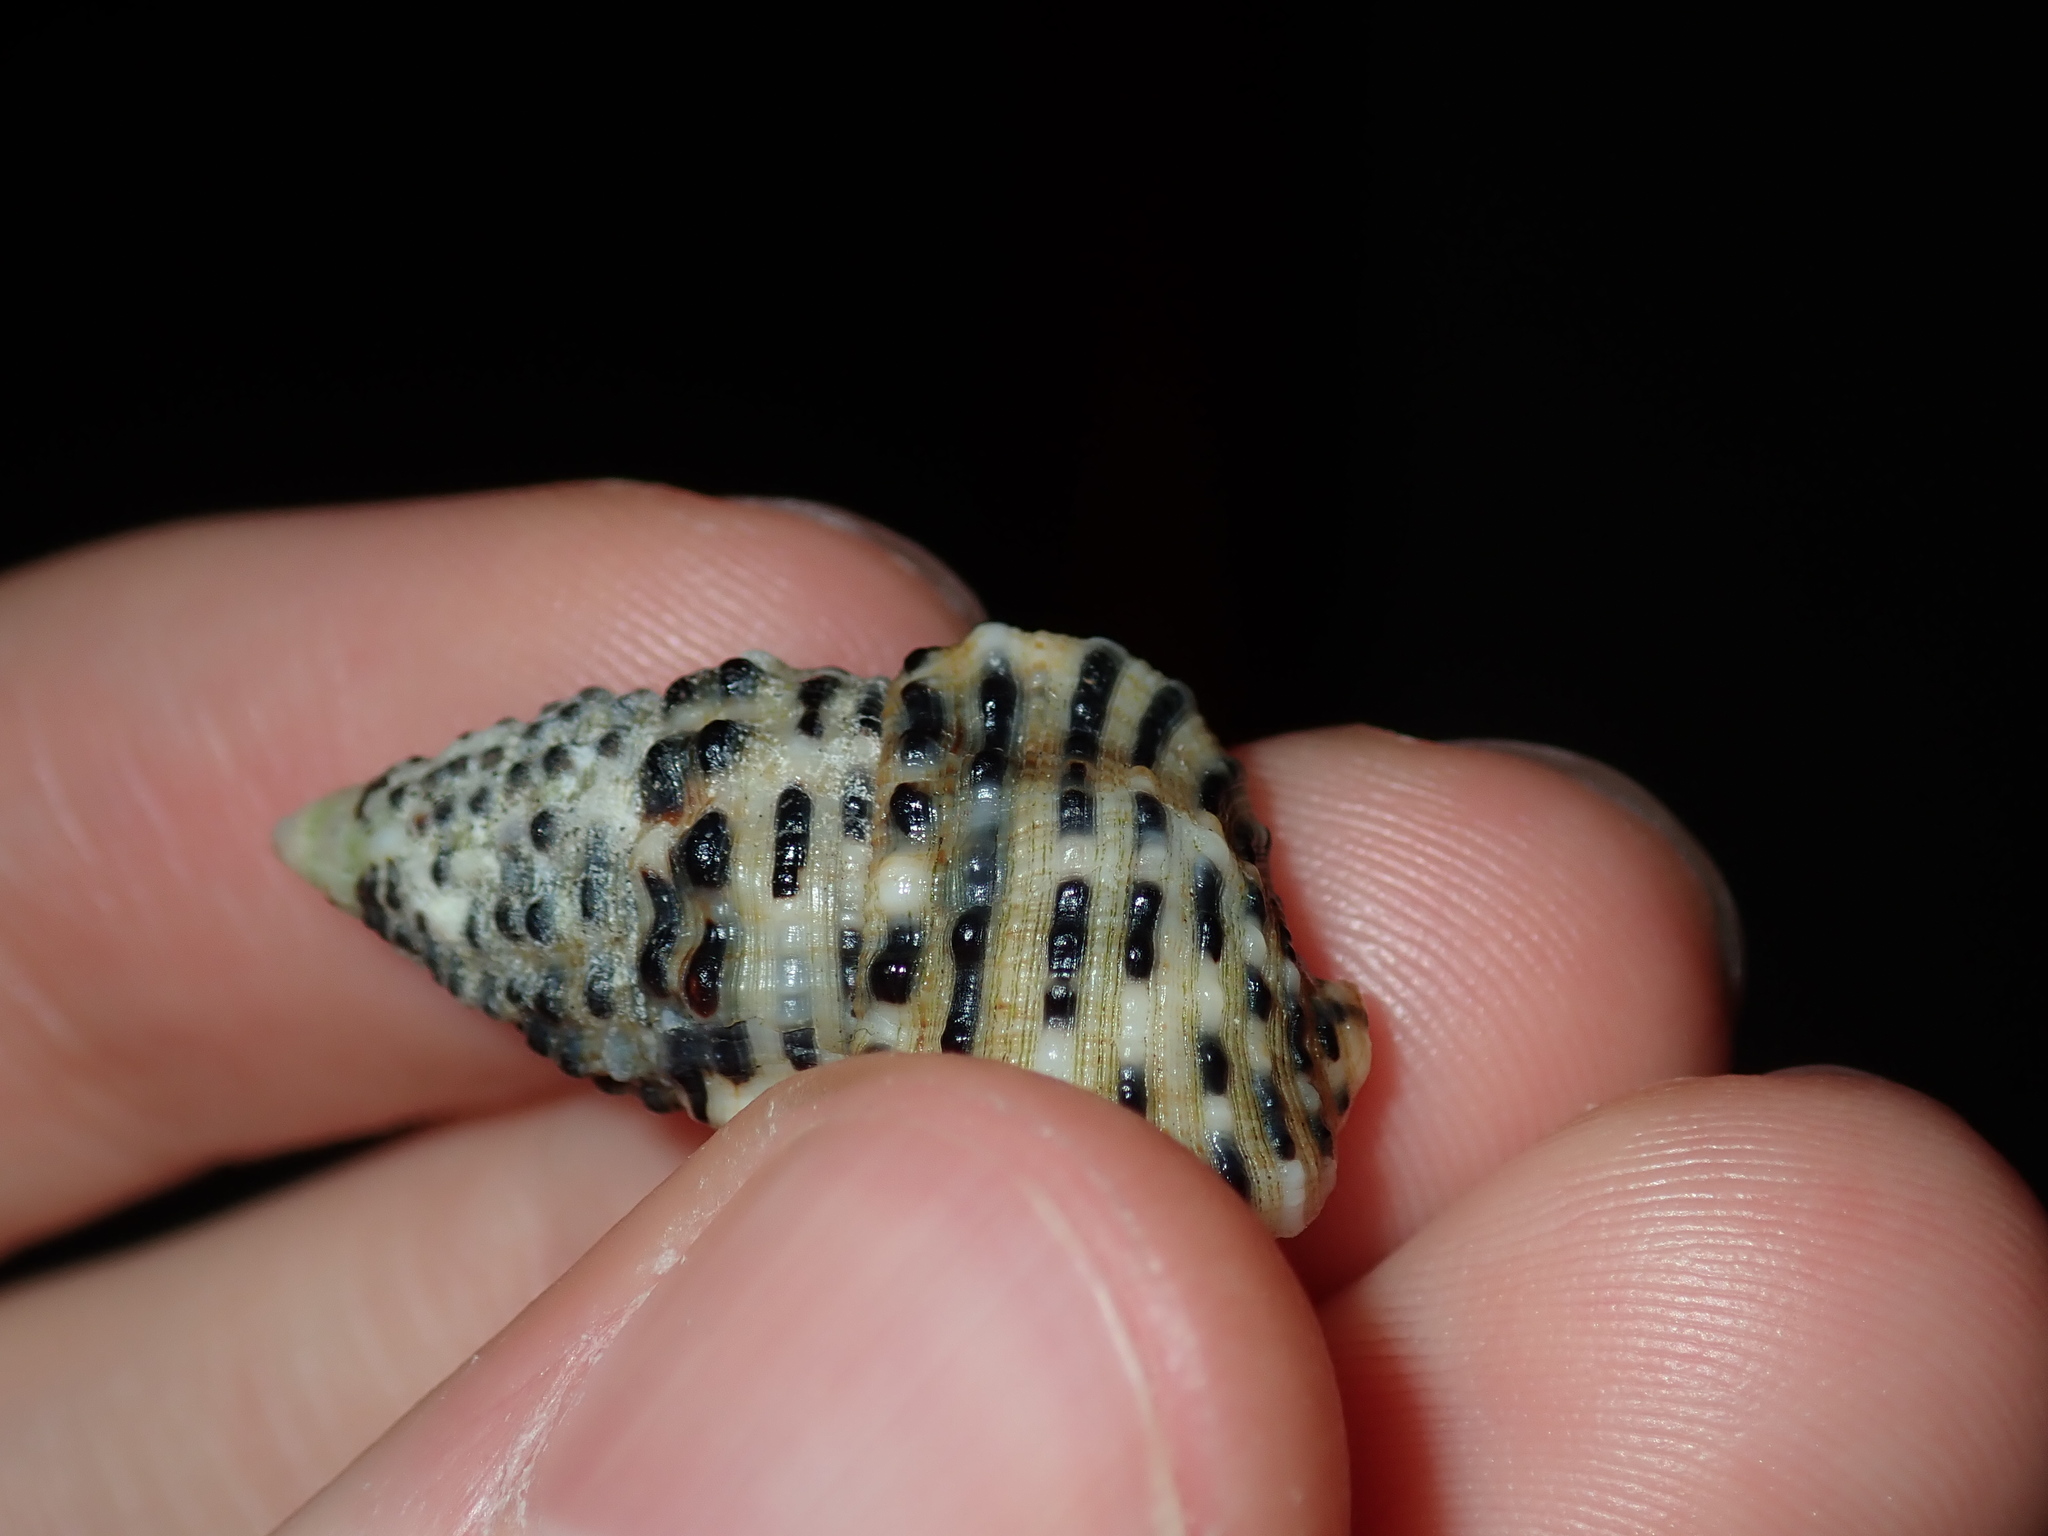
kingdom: Animalia
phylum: Mollusca
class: Gastropoda
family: Cerithiidae
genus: Clypeomorus
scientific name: Clypeomorus petrosa
